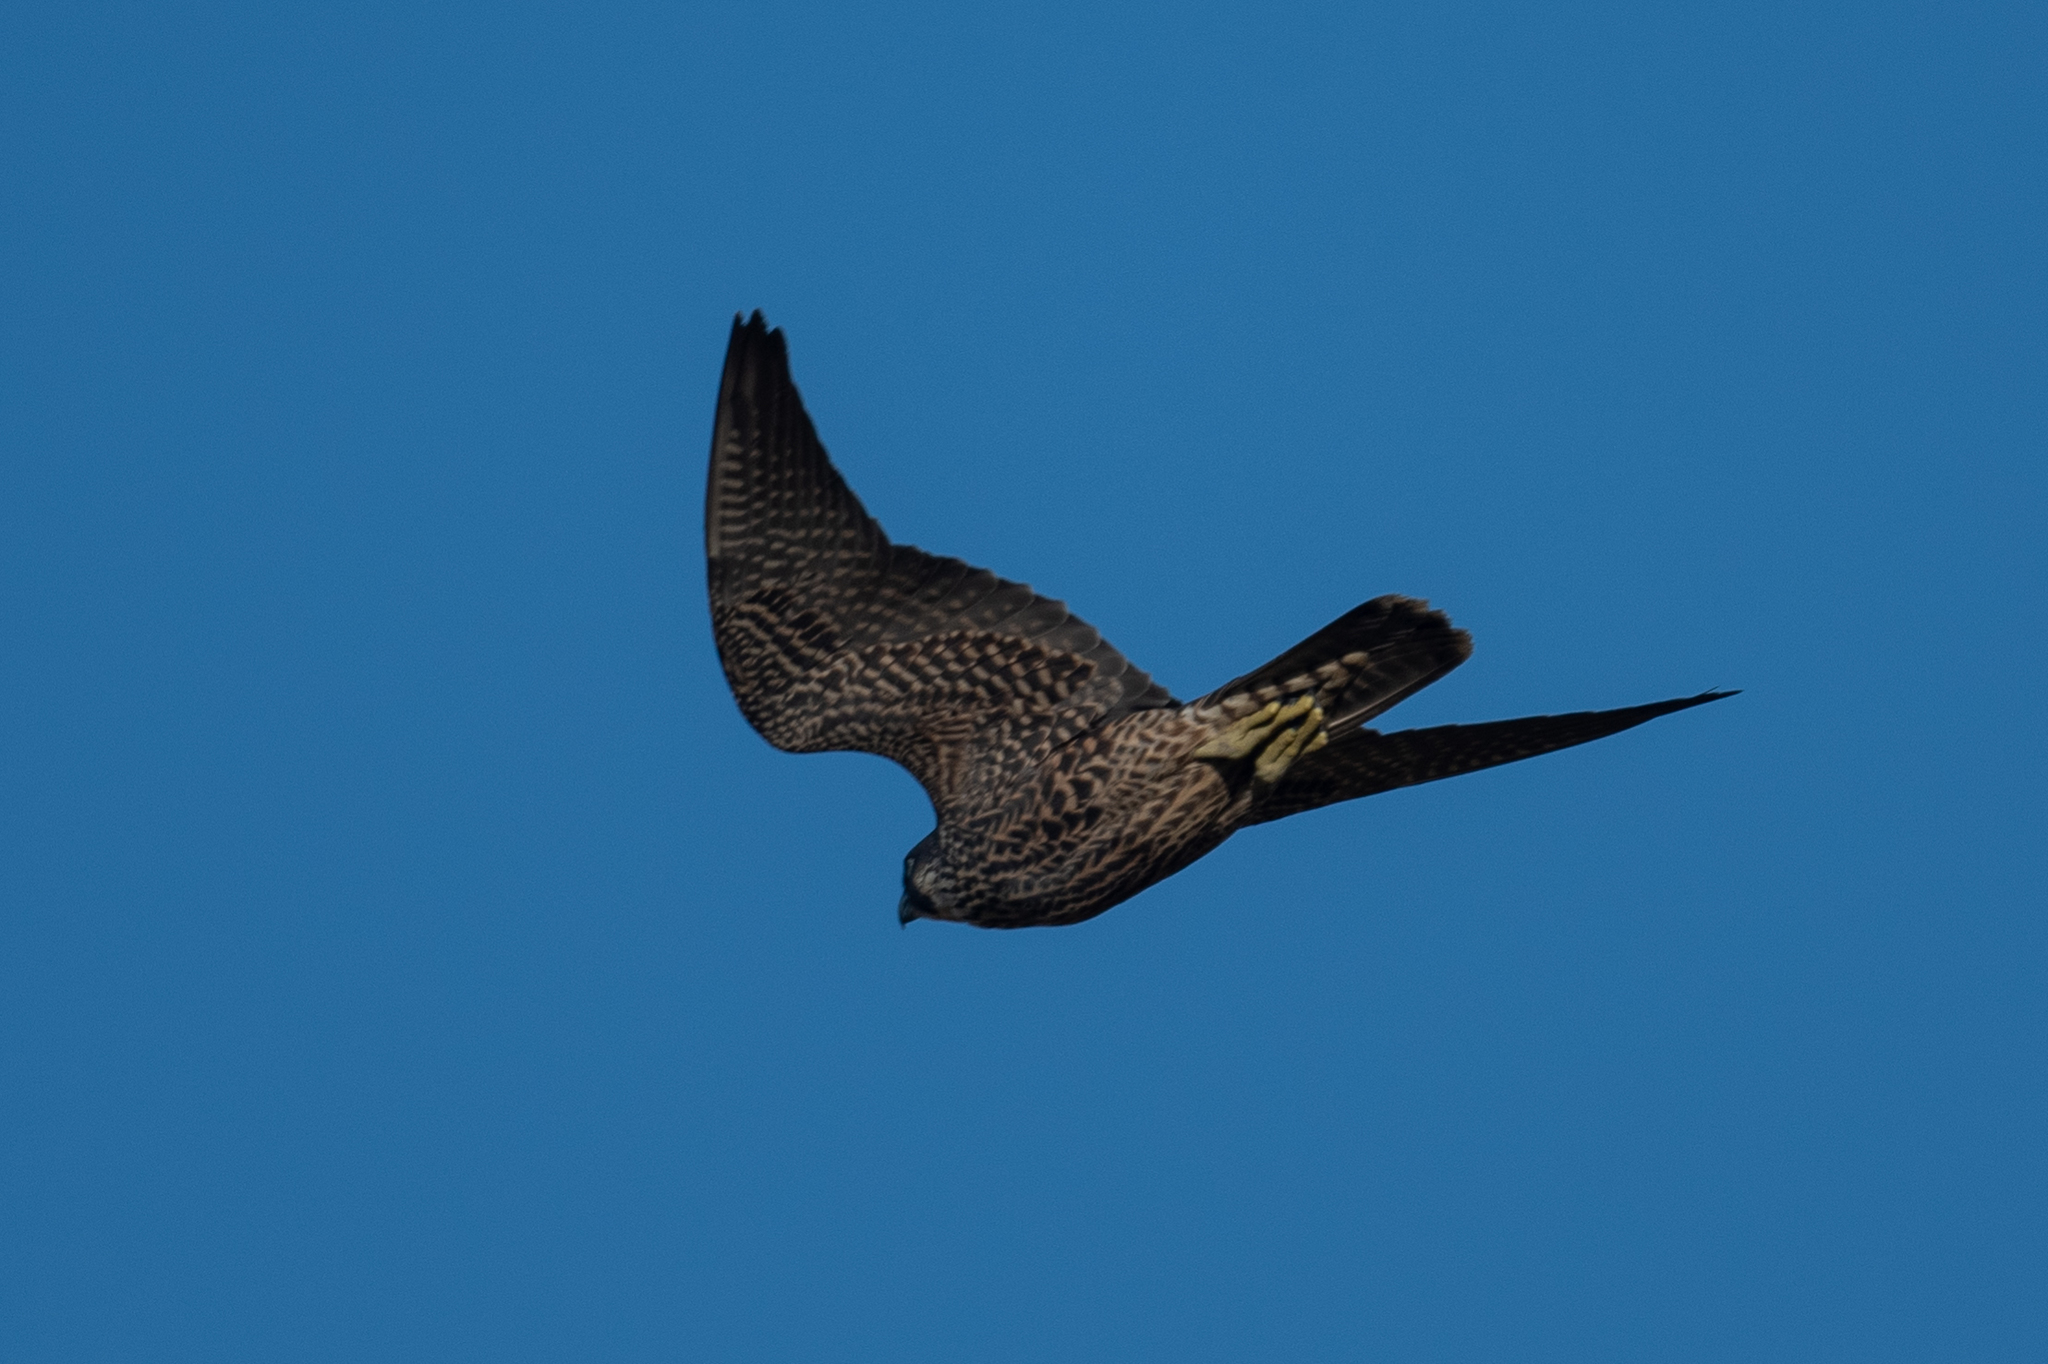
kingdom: Animalia
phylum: Chordata
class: Aves
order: Falconiformes
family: Falconidae
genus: Falco
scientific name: Falco peregrinus
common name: Peregrine falcon
